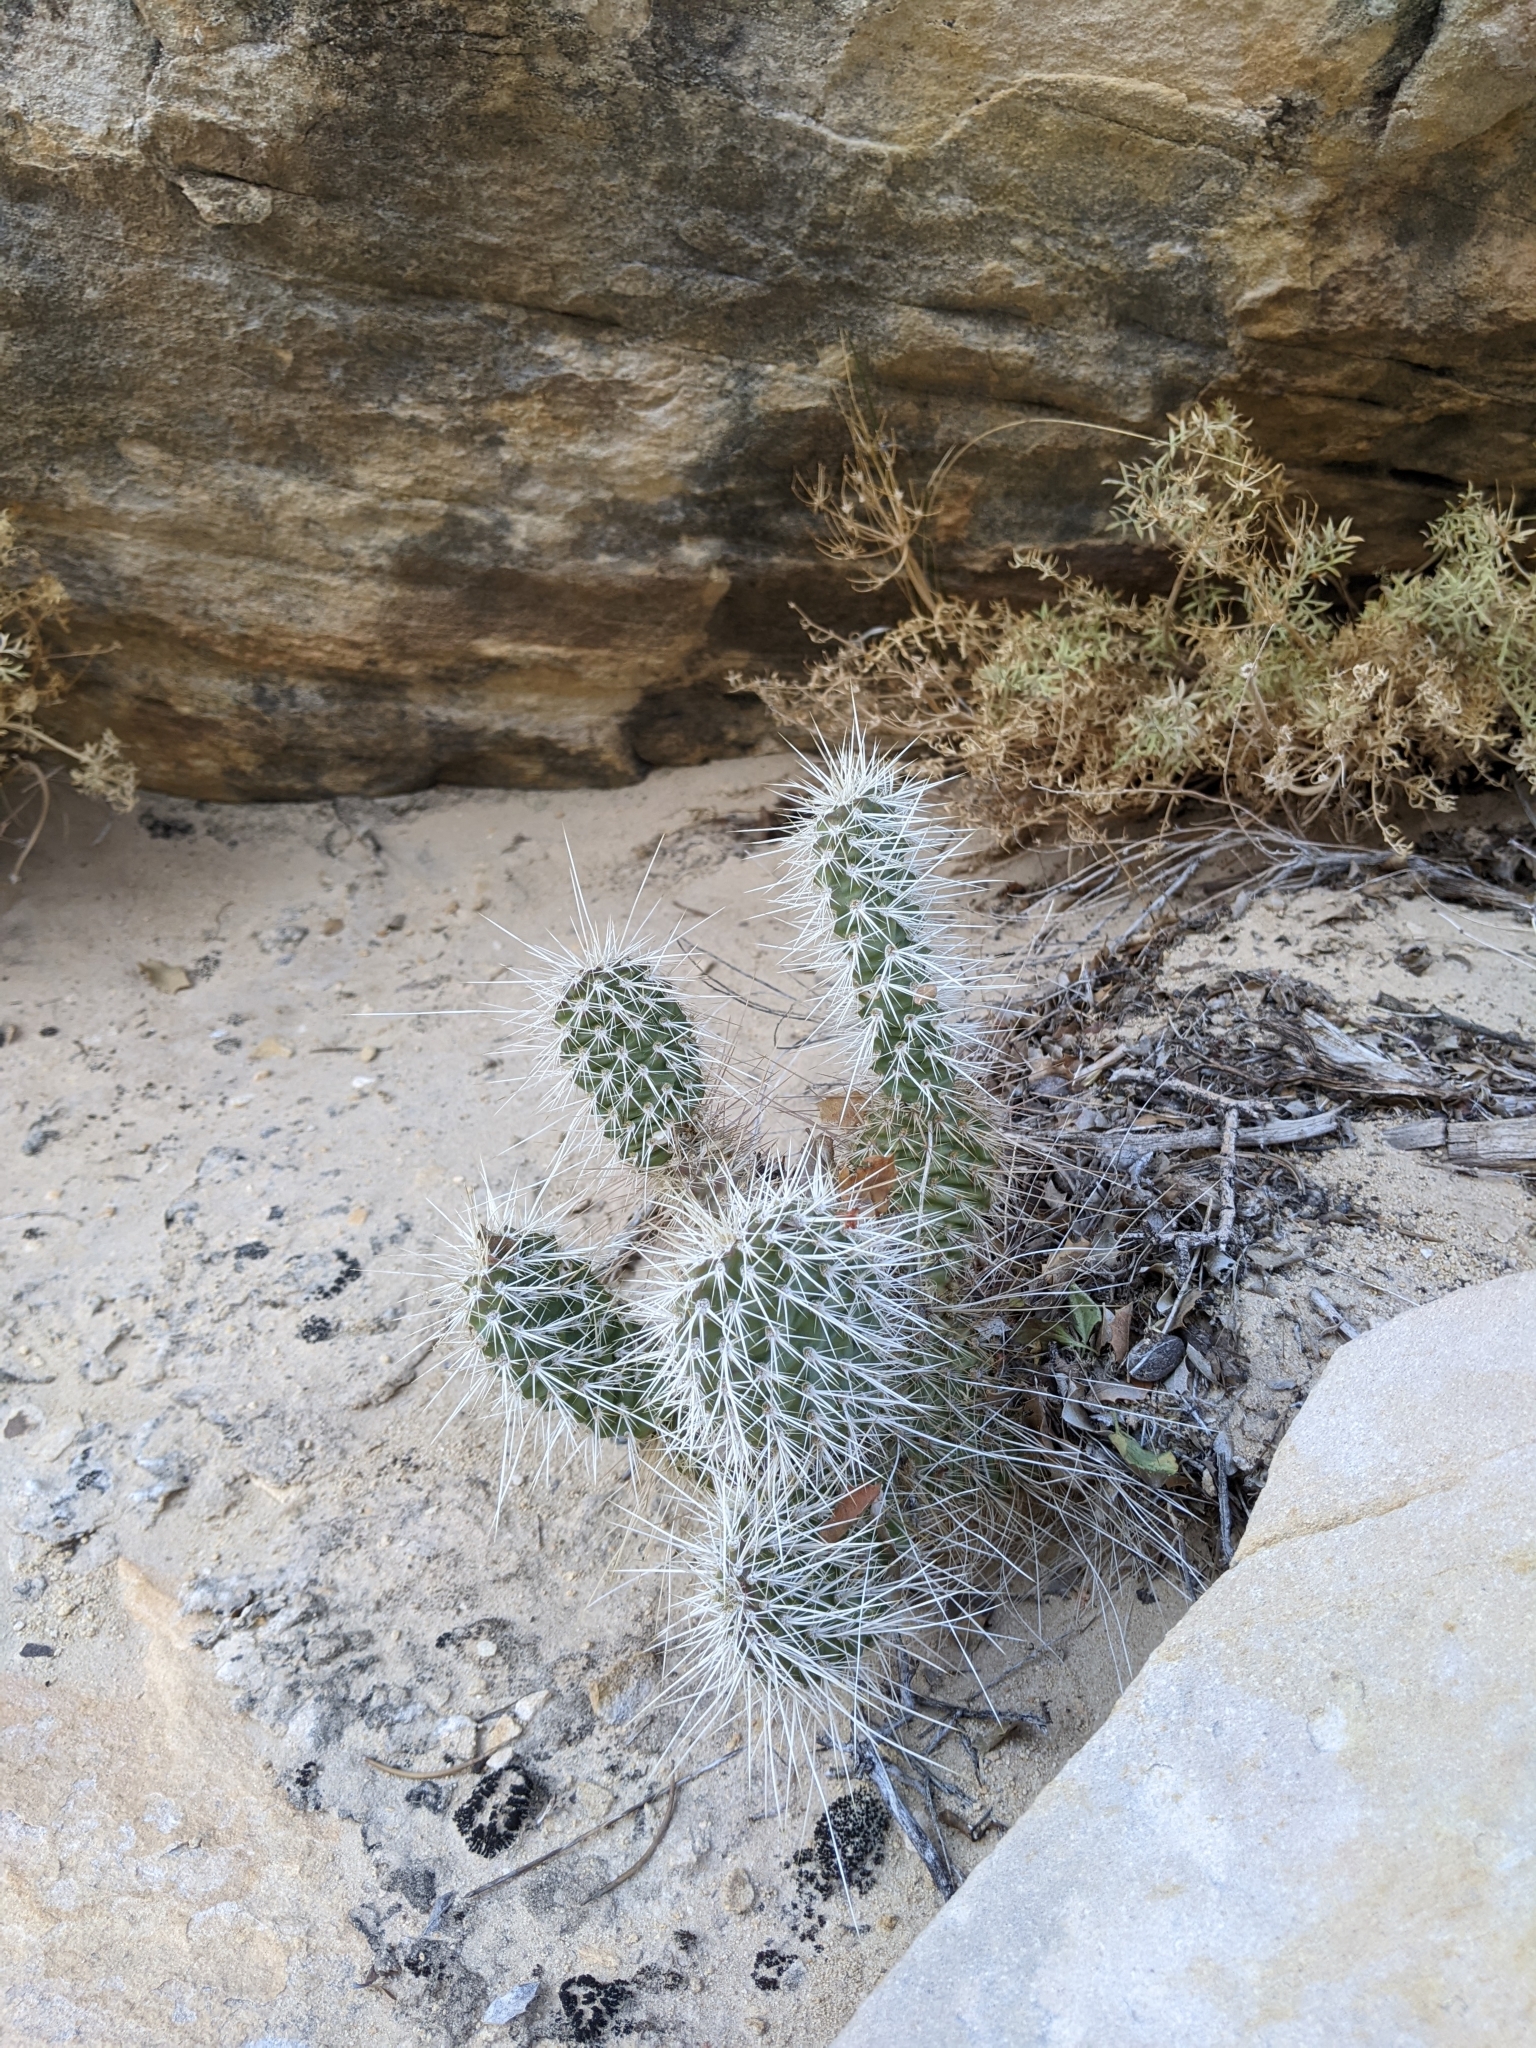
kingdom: Plantae
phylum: Tracheophyta
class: Magnoliopsida
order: Caryophyllales
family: Cactaceae
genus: Opuntia
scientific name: Opuntia polyacantha
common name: Plains prickly-pear
